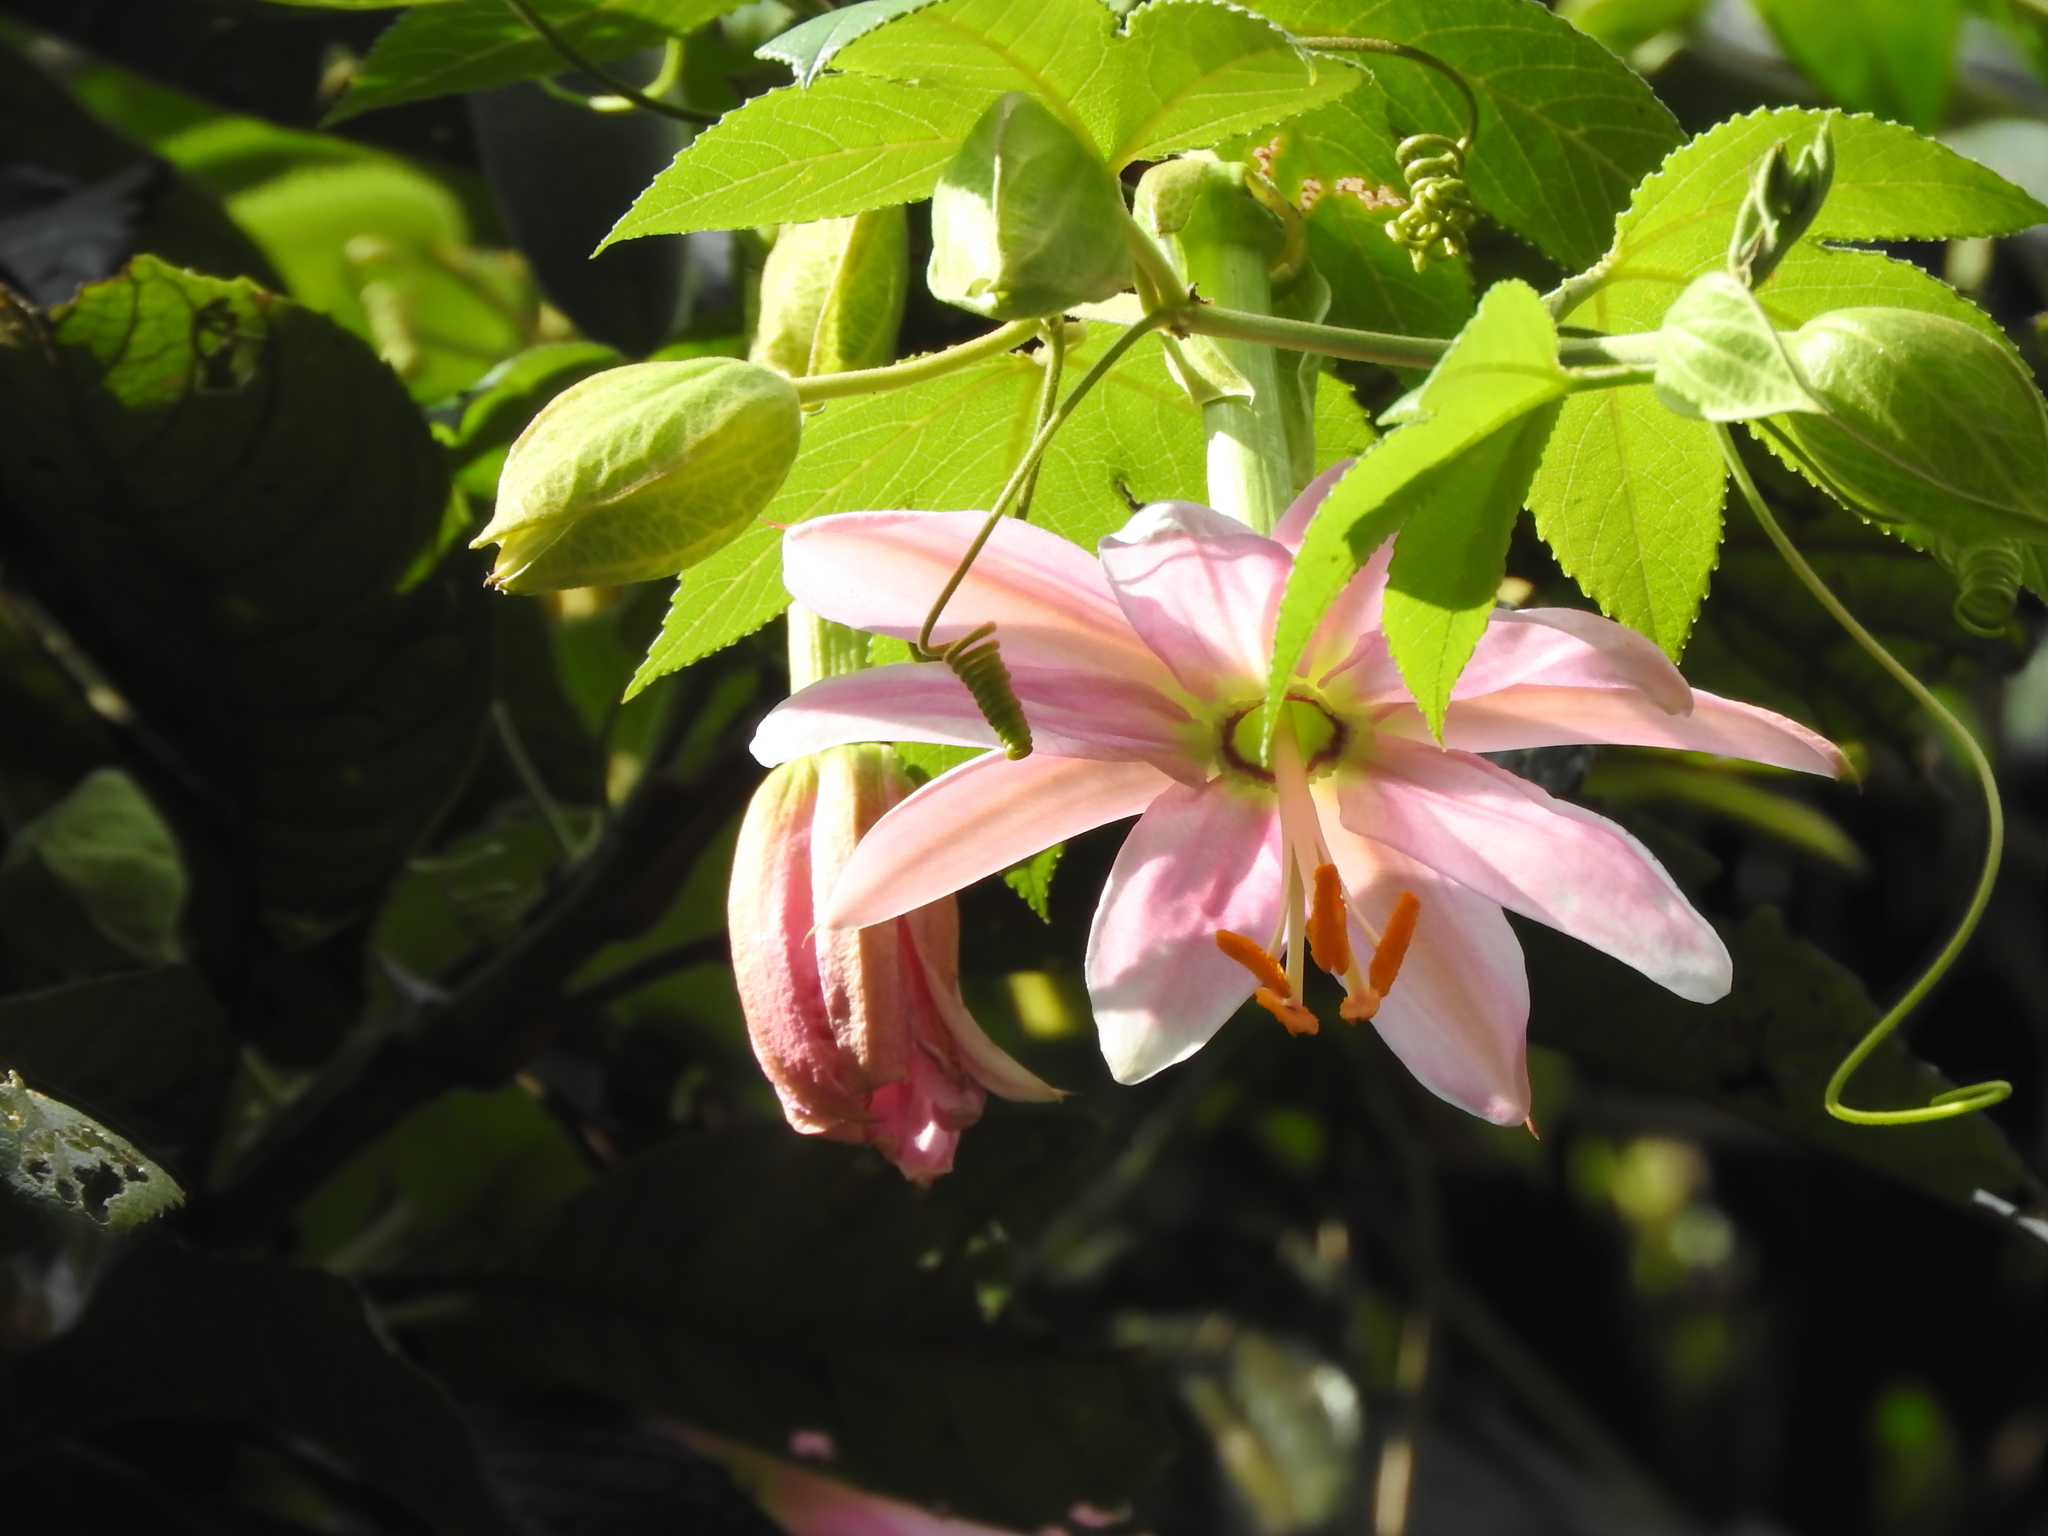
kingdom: Plantae
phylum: Tracheophyta
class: Magnoliopsida
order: Malpighiales
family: Passifloraceae
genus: Passiflora
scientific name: Passiflora tarminiana
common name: Banana poka
